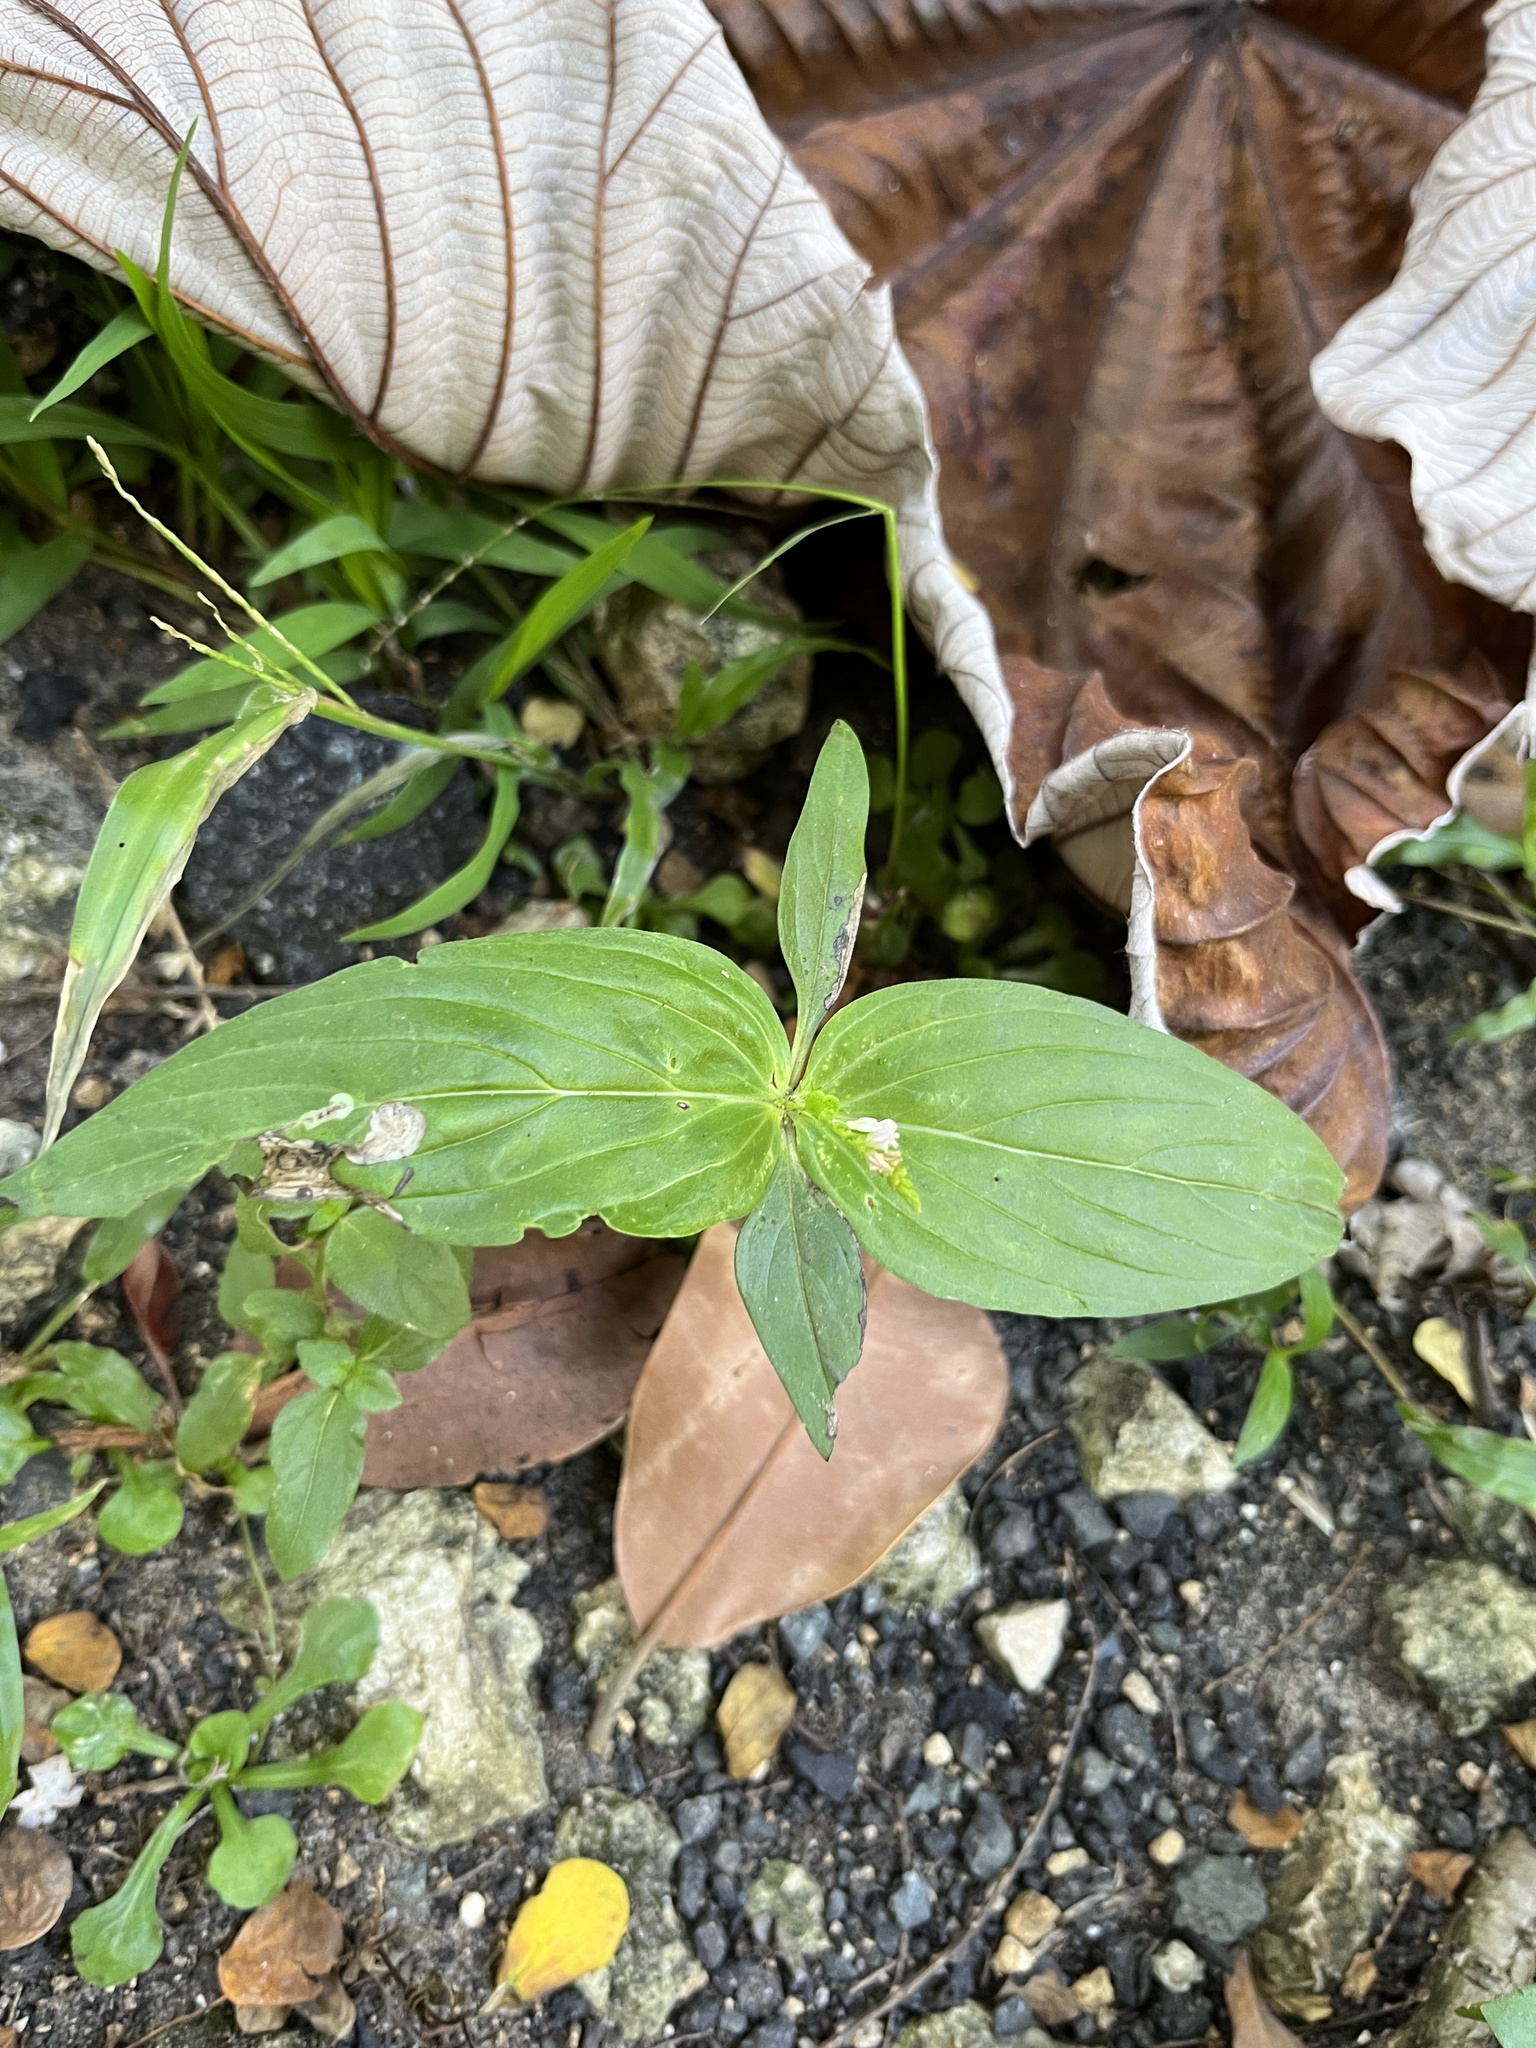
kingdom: Plantae
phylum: Tracheophyta
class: Magnoliopsida
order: Gentianales
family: Loganiaceae
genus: Spigelia
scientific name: Spigelia anthelmia
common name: West indian-pink
